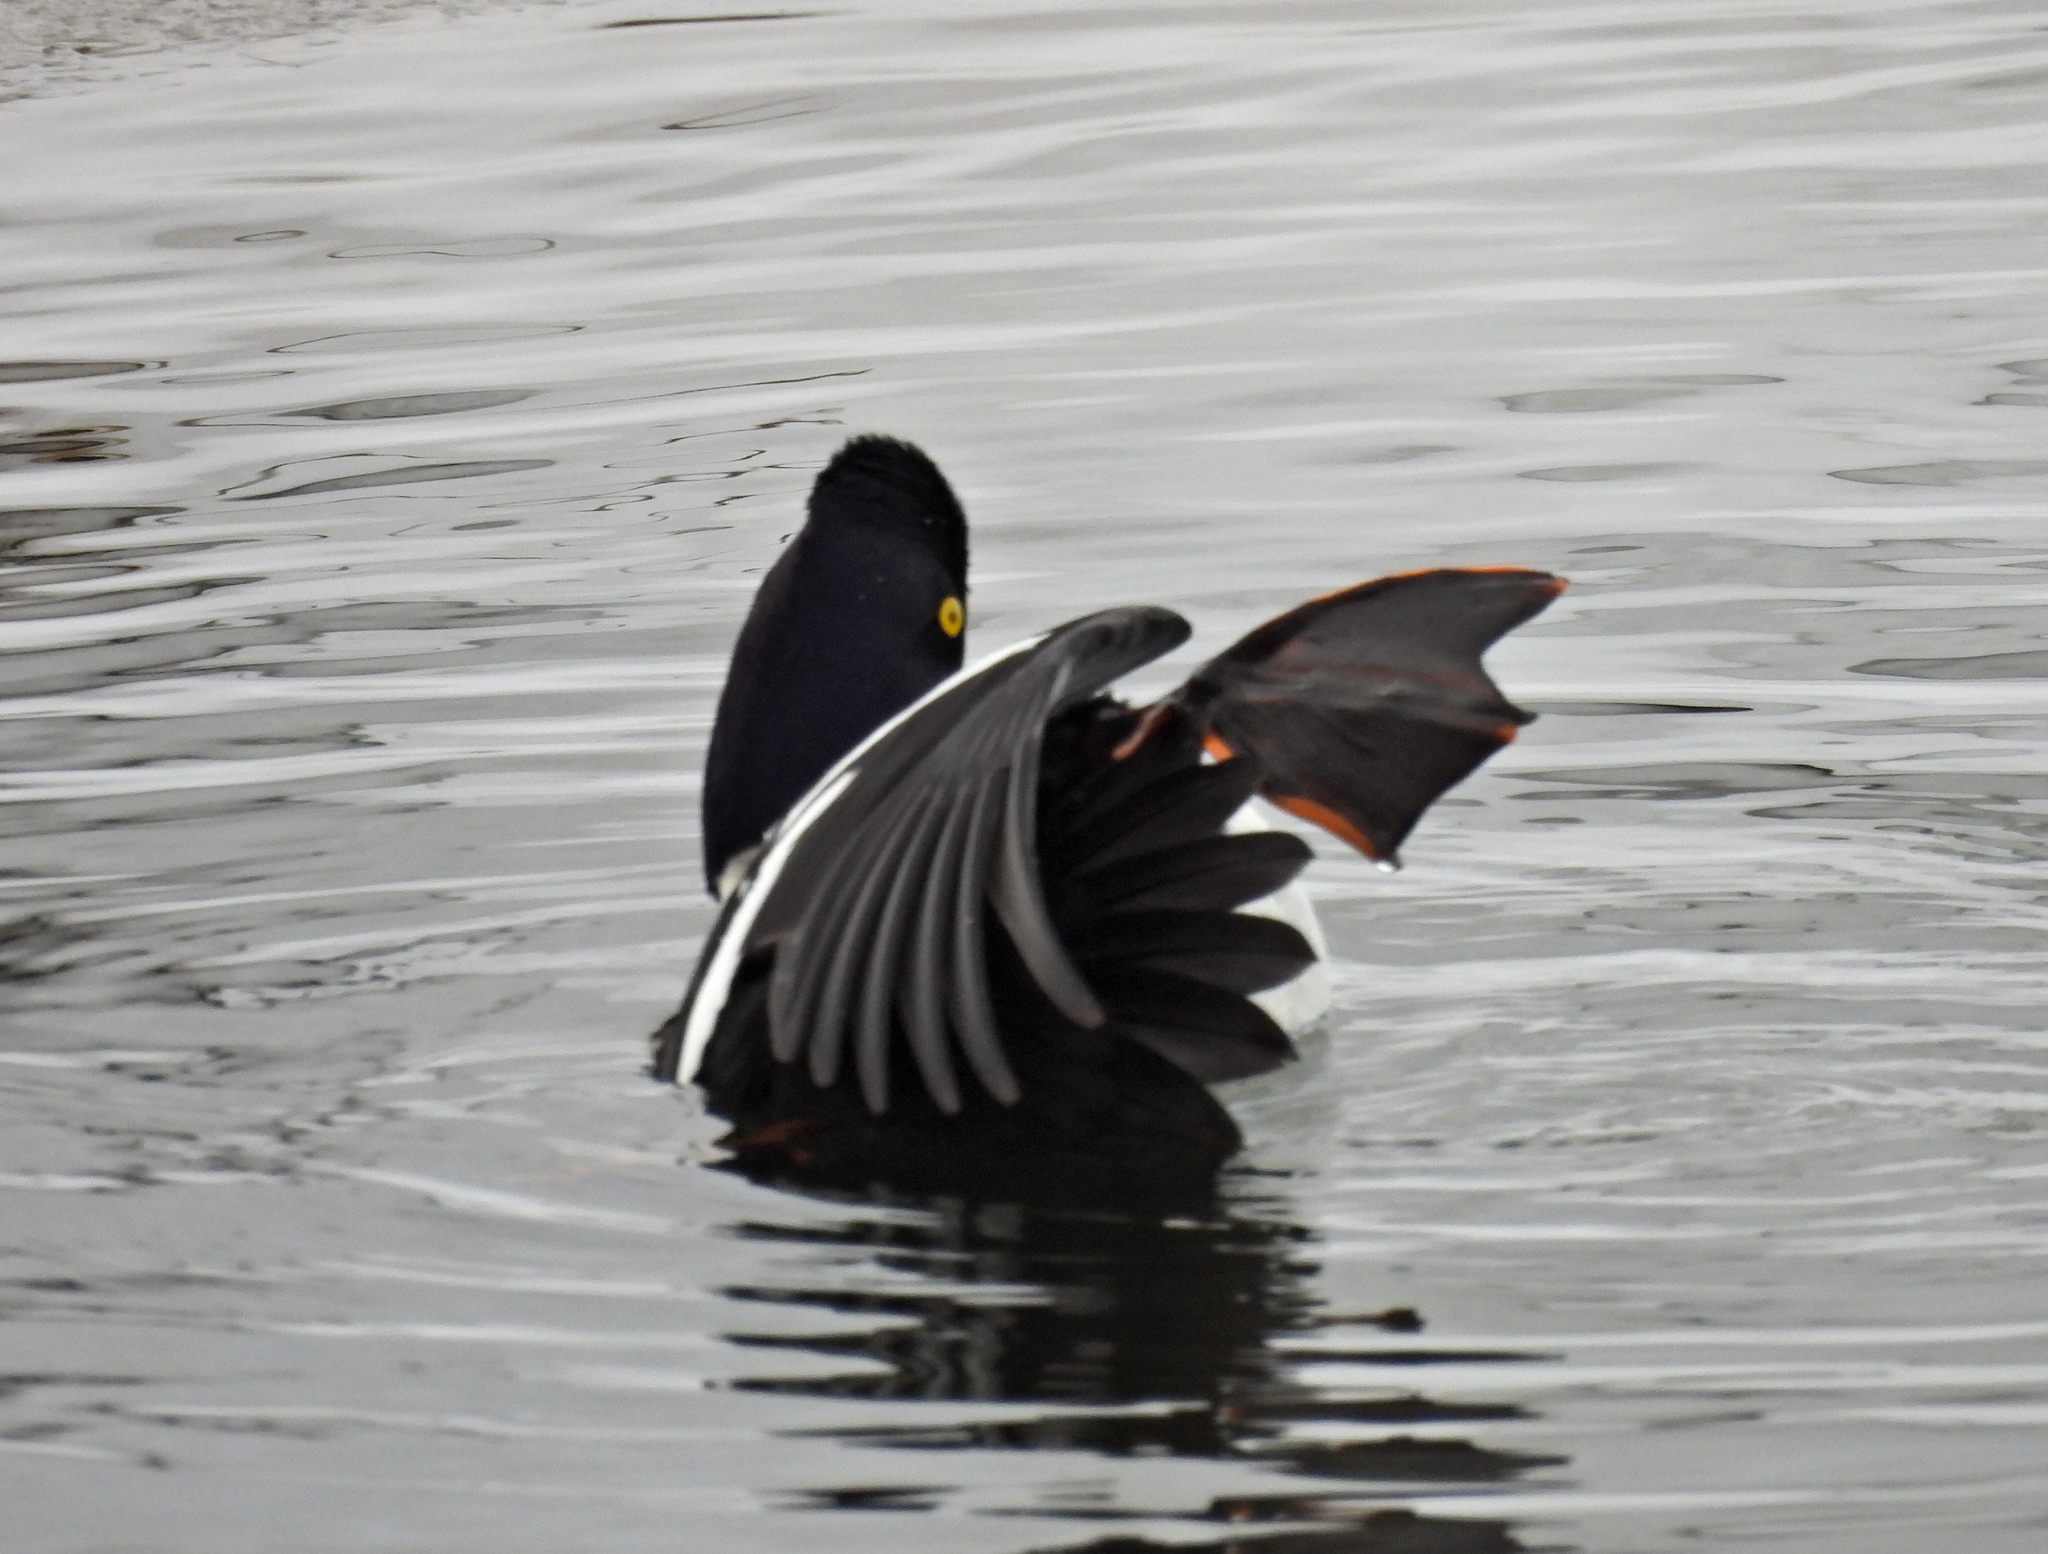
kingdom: Animalia
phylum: Chordata
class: Aves
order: Anseriformes
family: Anatidae
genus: Bucephala
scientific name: Bucephala islandica
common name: Barrow's goldeneye
